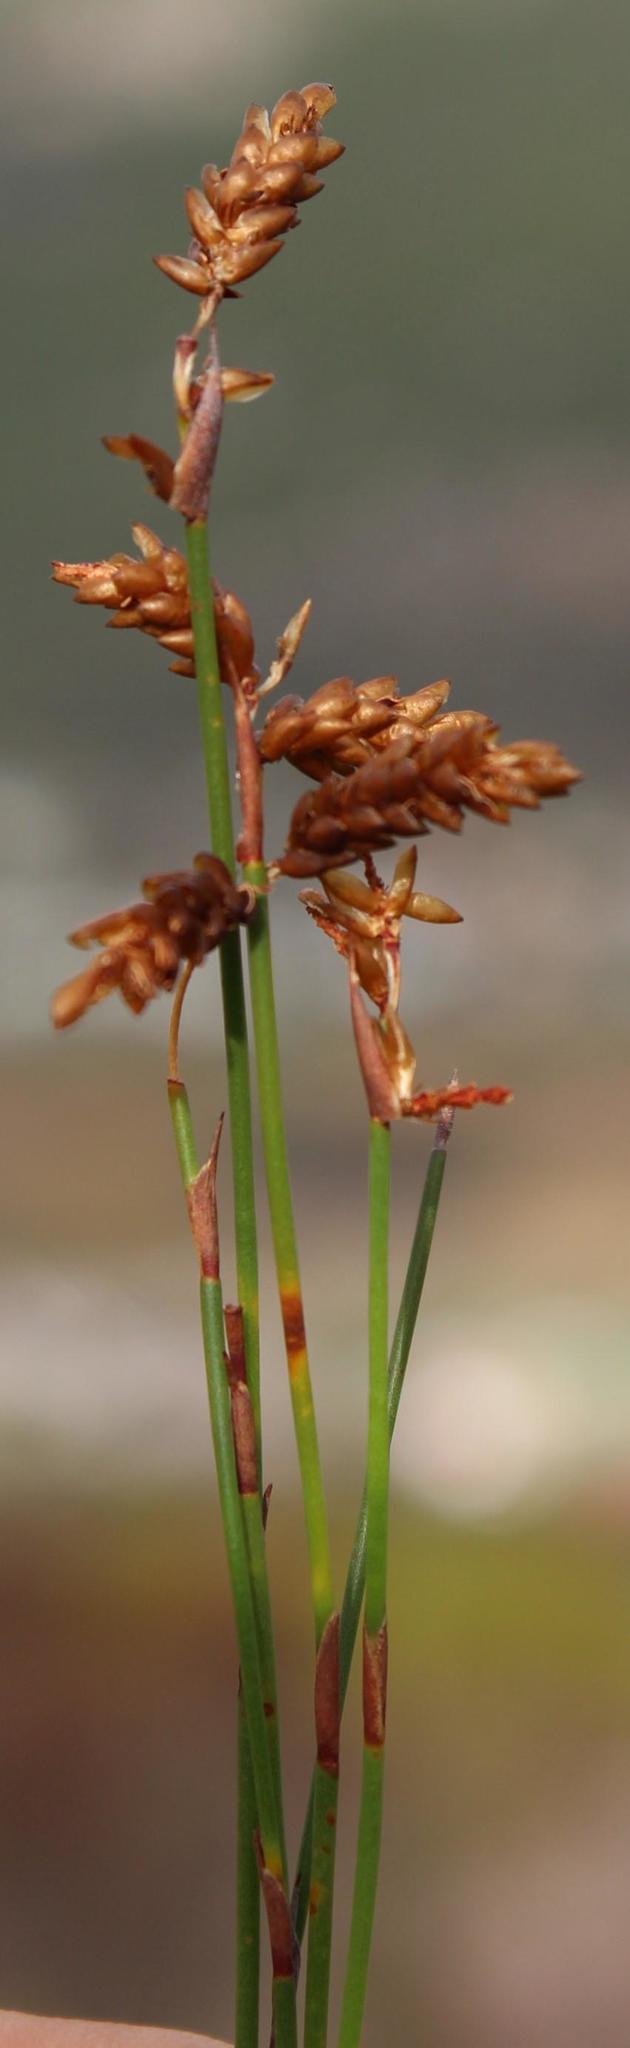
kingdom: Plantae
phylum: Tracheophyta
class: Liliopsida
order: Poales
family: Restionaceae
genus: Mastersiella
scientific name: Mastersiella digitata
